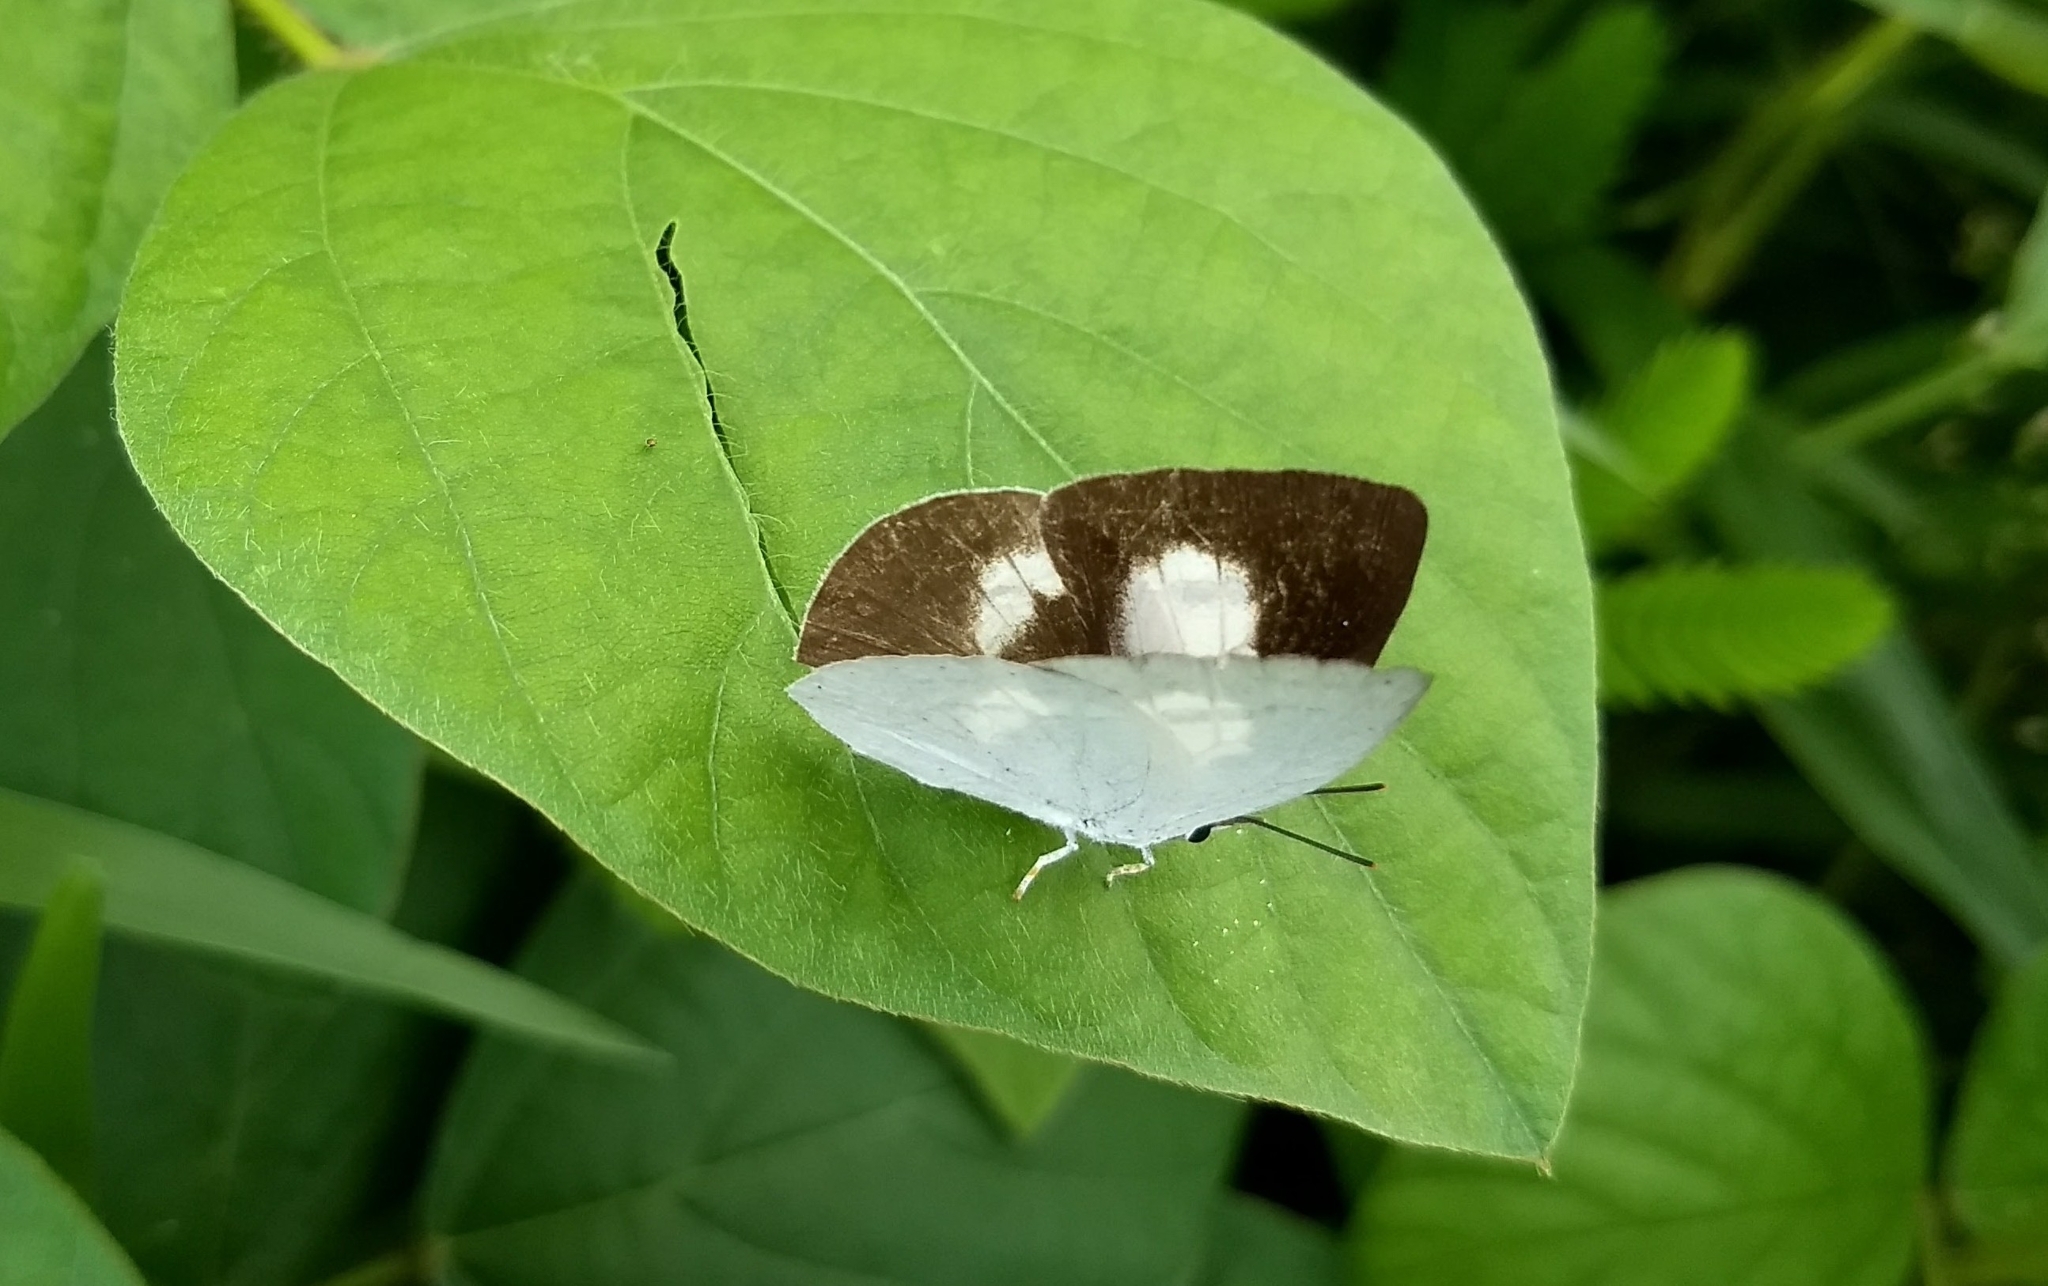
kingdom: Animalia
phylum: Arthropoda
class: Insecta
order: Lepidoptera
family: Lycaenidae
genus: Curetis
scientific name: Curetis thetis
